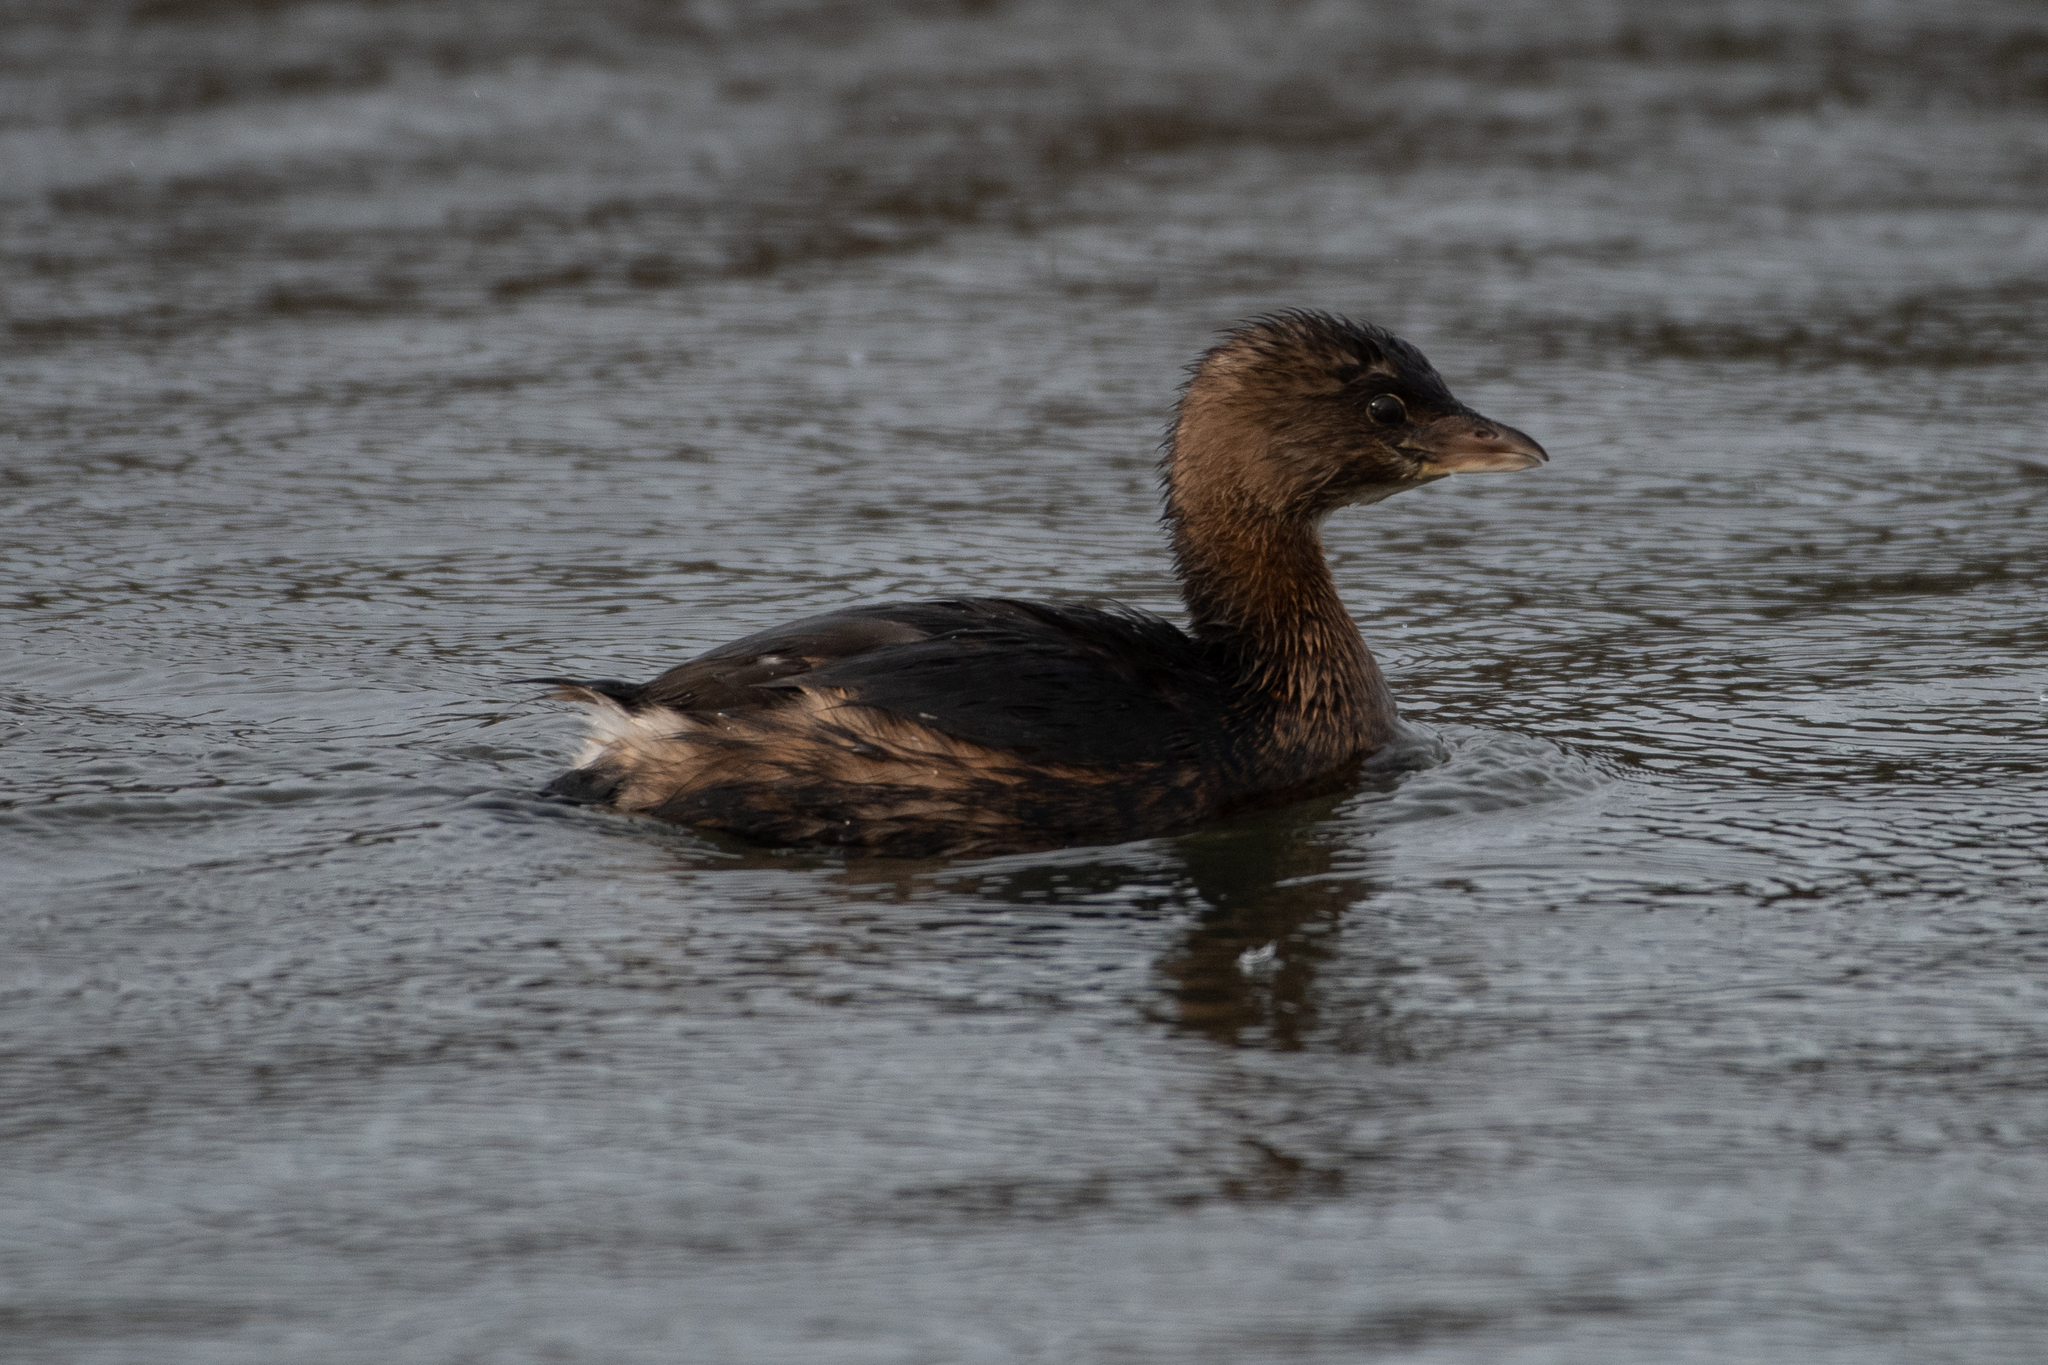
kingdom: Animalia
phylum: Chordata
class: Aves
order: Podicipediformes
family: Podicipedidae
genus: Podilymbus
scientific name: Podilymbus podiceps
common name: Pied-billed grebe
